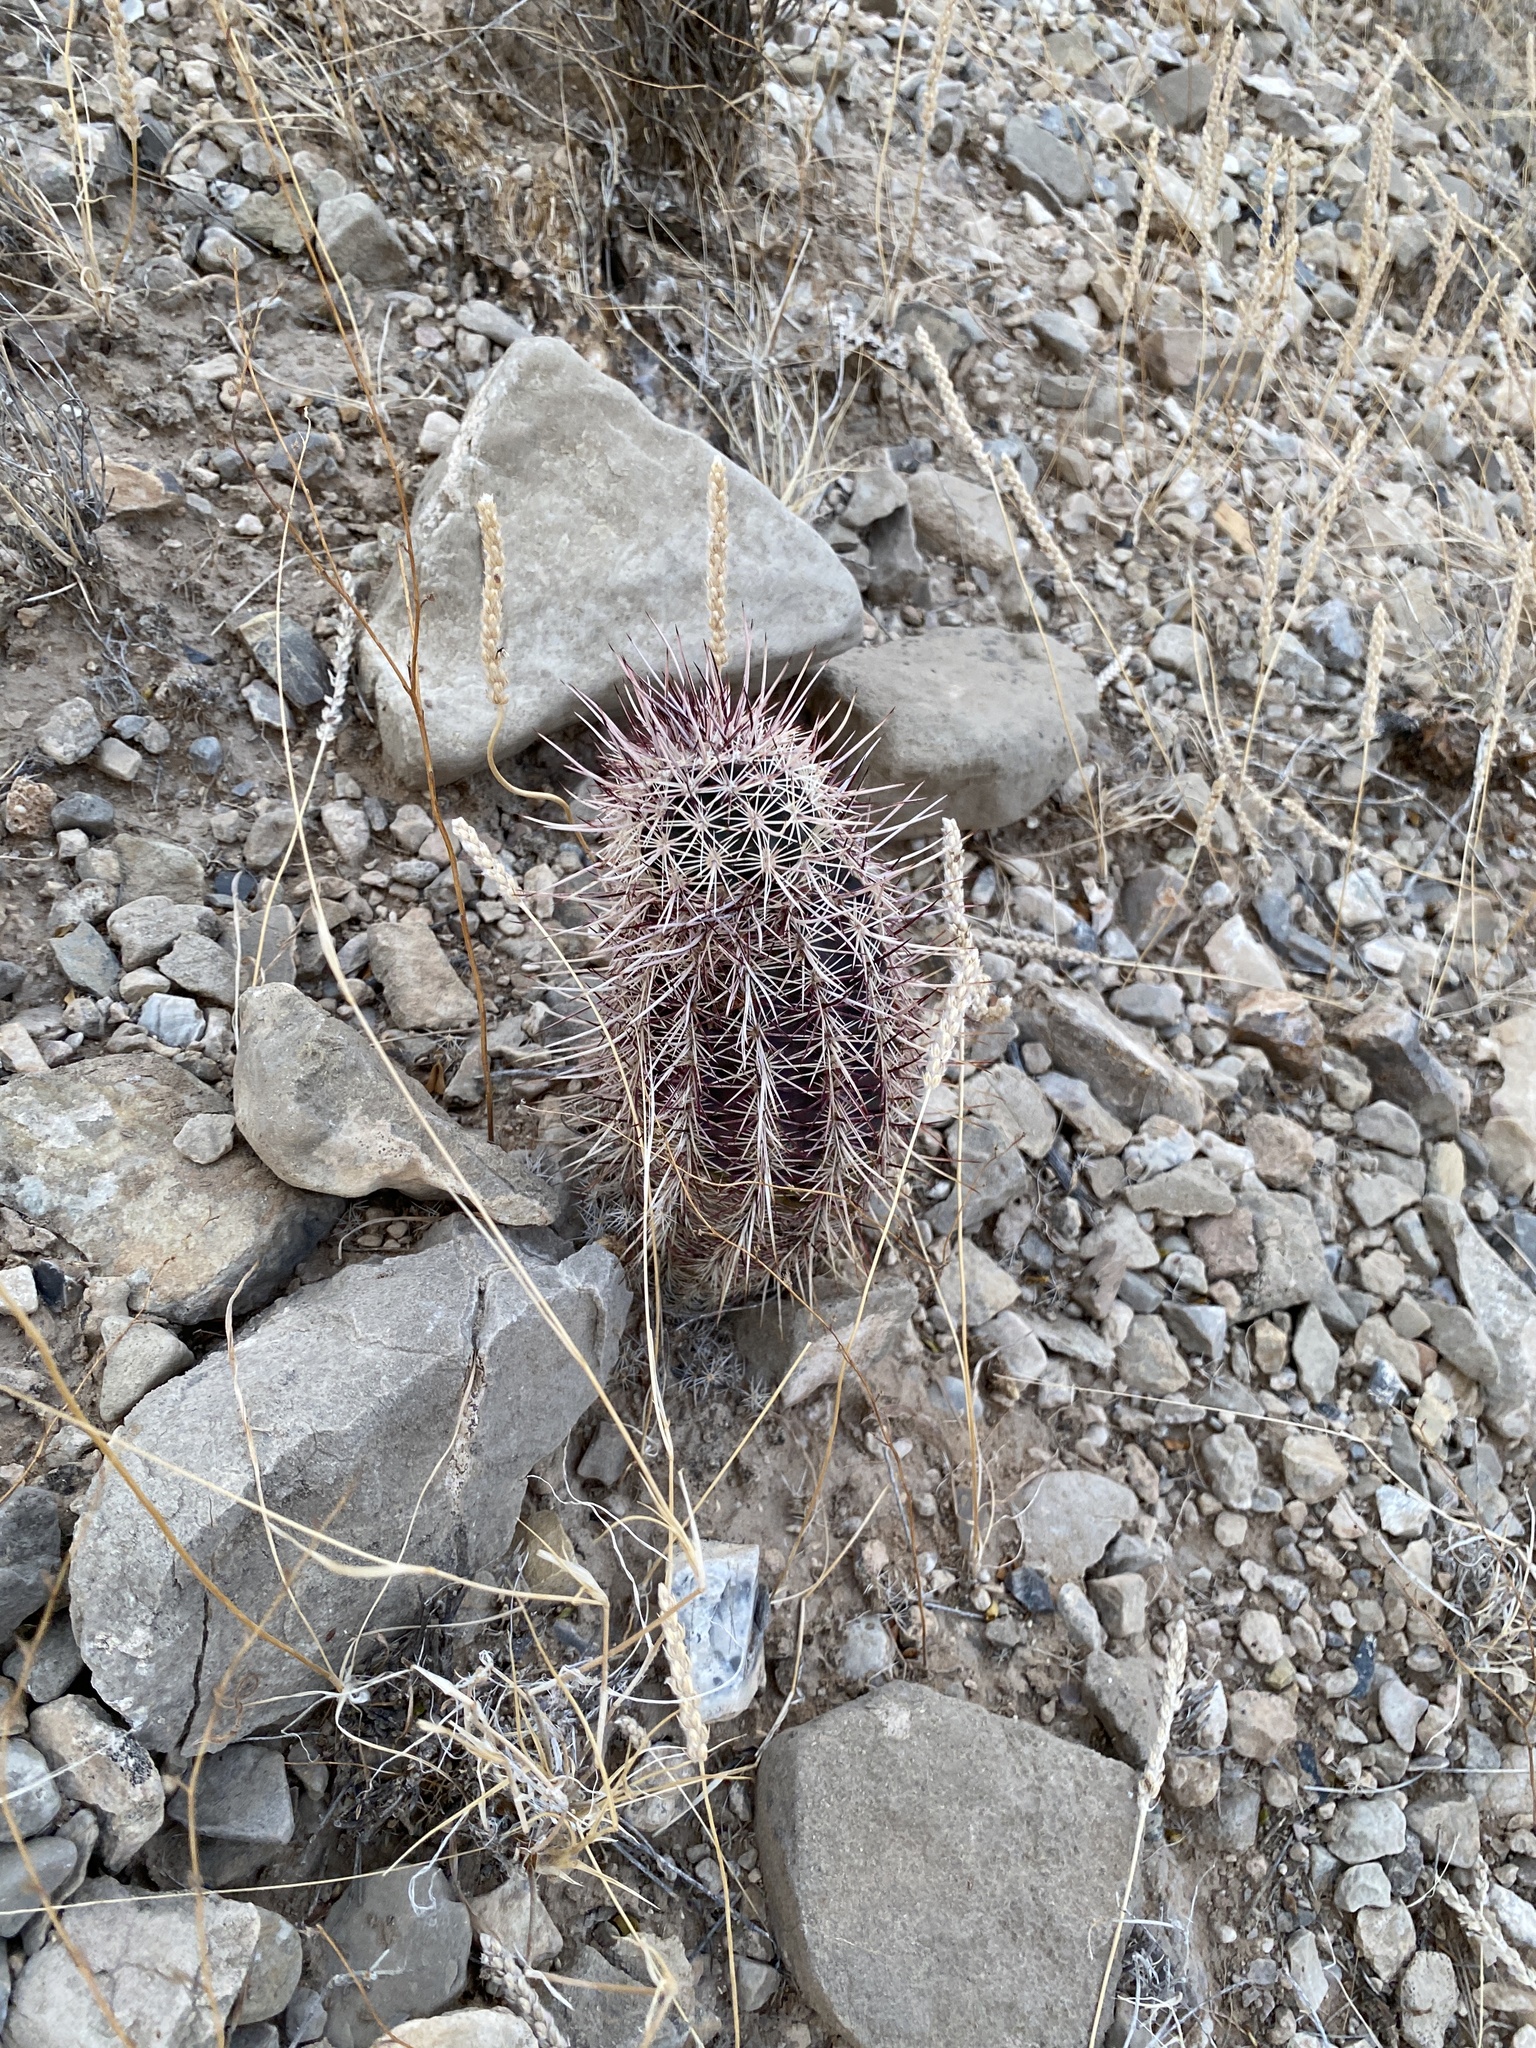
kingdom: Plantae
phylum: Tracheophyta
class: Magnoliopsida
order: Caryophyllales
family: Cactaceae
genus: Echinocereus
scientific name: Echinocereus viridiflorus
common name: Nylon hedgehog cactus
